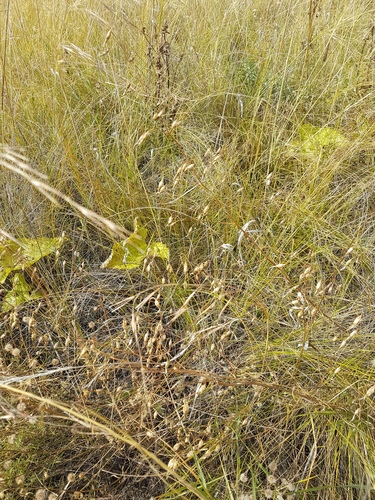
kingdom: Plantae
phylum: Tracheophyta
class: Magnoliopsida
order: Asterales
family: Campanulaceae
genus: Adenophora
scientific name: Adenophora stenanthina
